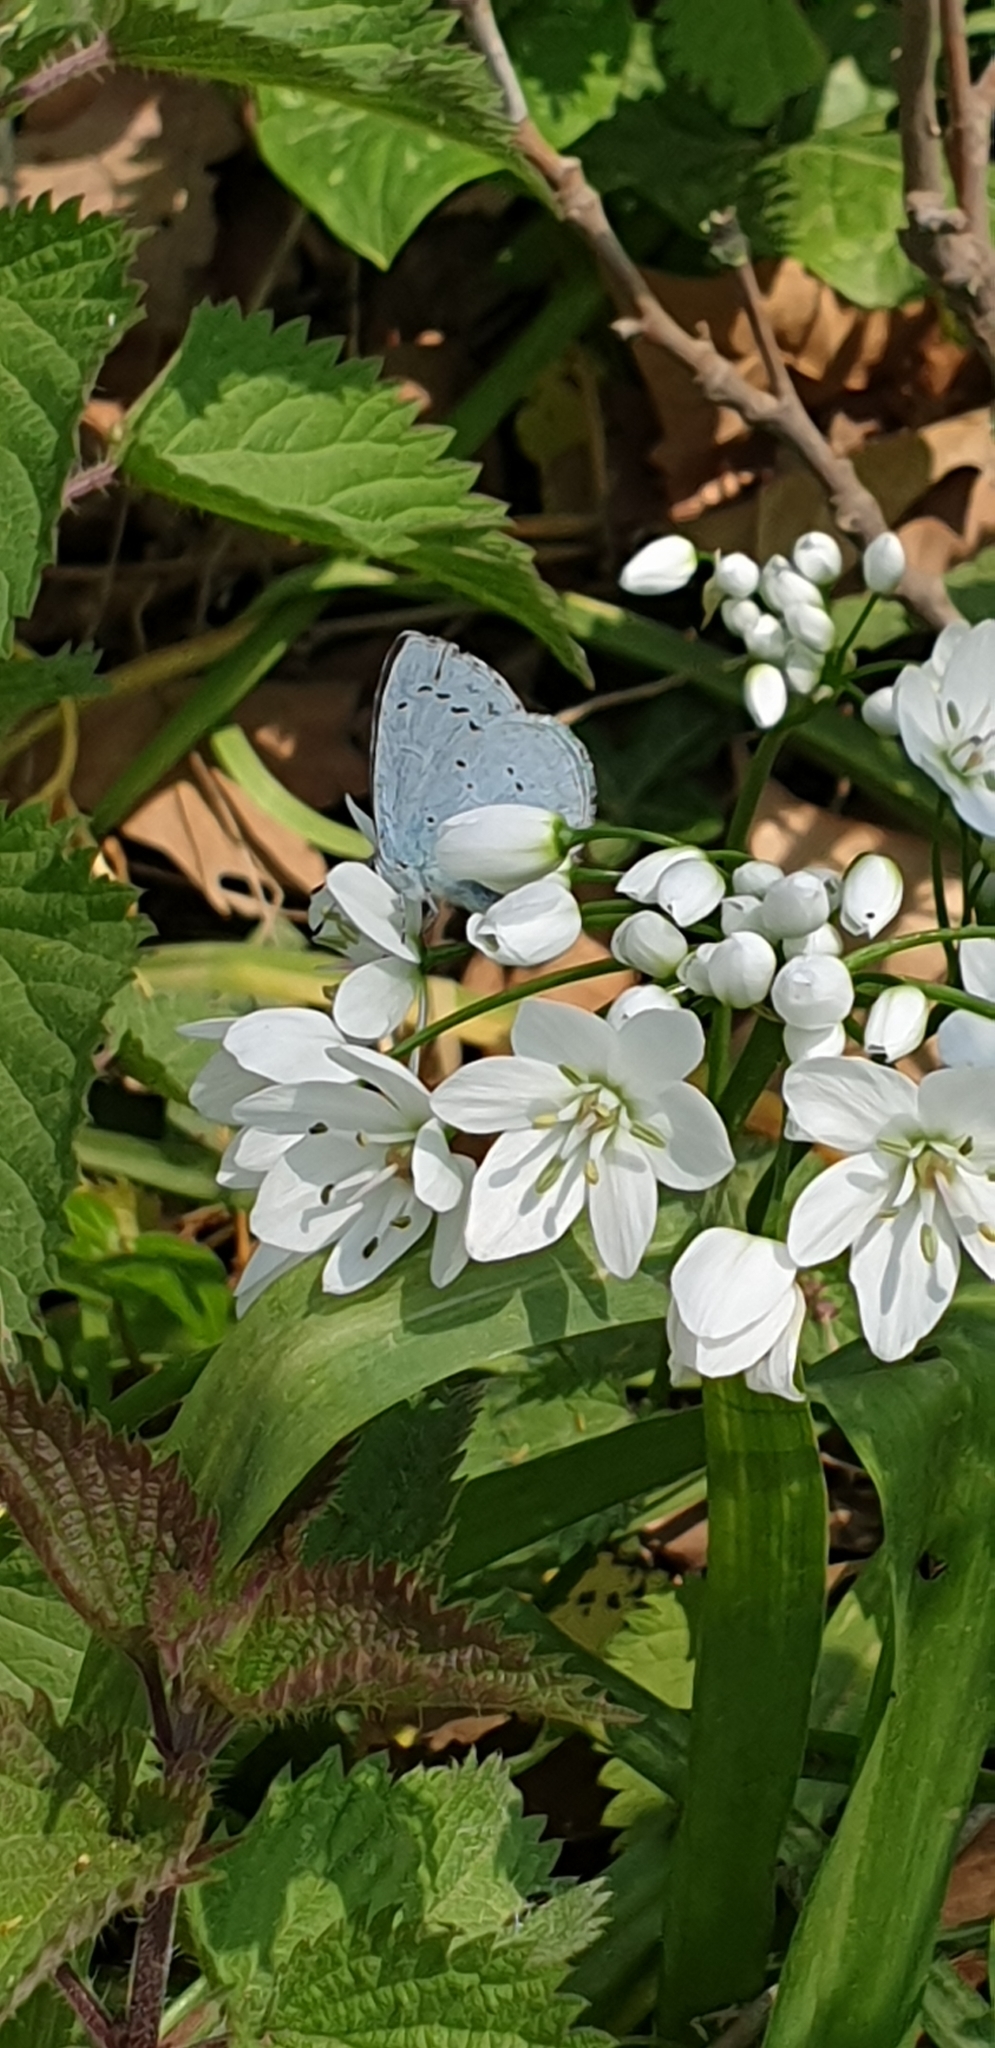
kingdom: Animalia
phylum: Arthropoda
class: Insecta
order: Lepidoptera
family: Lycaenidae
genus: Celastrina
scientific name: Celastrina argiolus
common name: Holly blue
